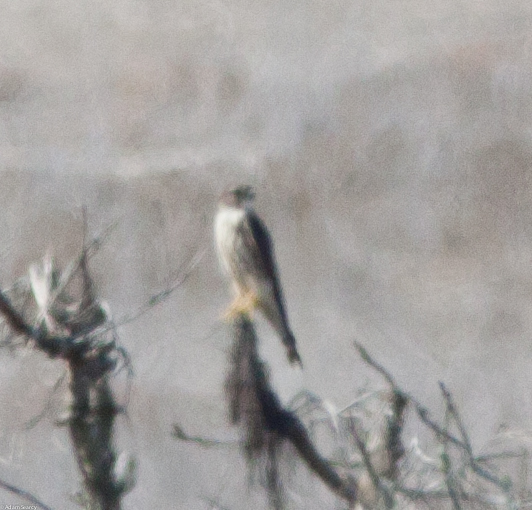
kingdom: Animalia
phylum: Chordata
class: Aves
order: Falconiformes
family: Falconidae
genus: Falco
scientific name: Falco columbarius
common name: Merlin
